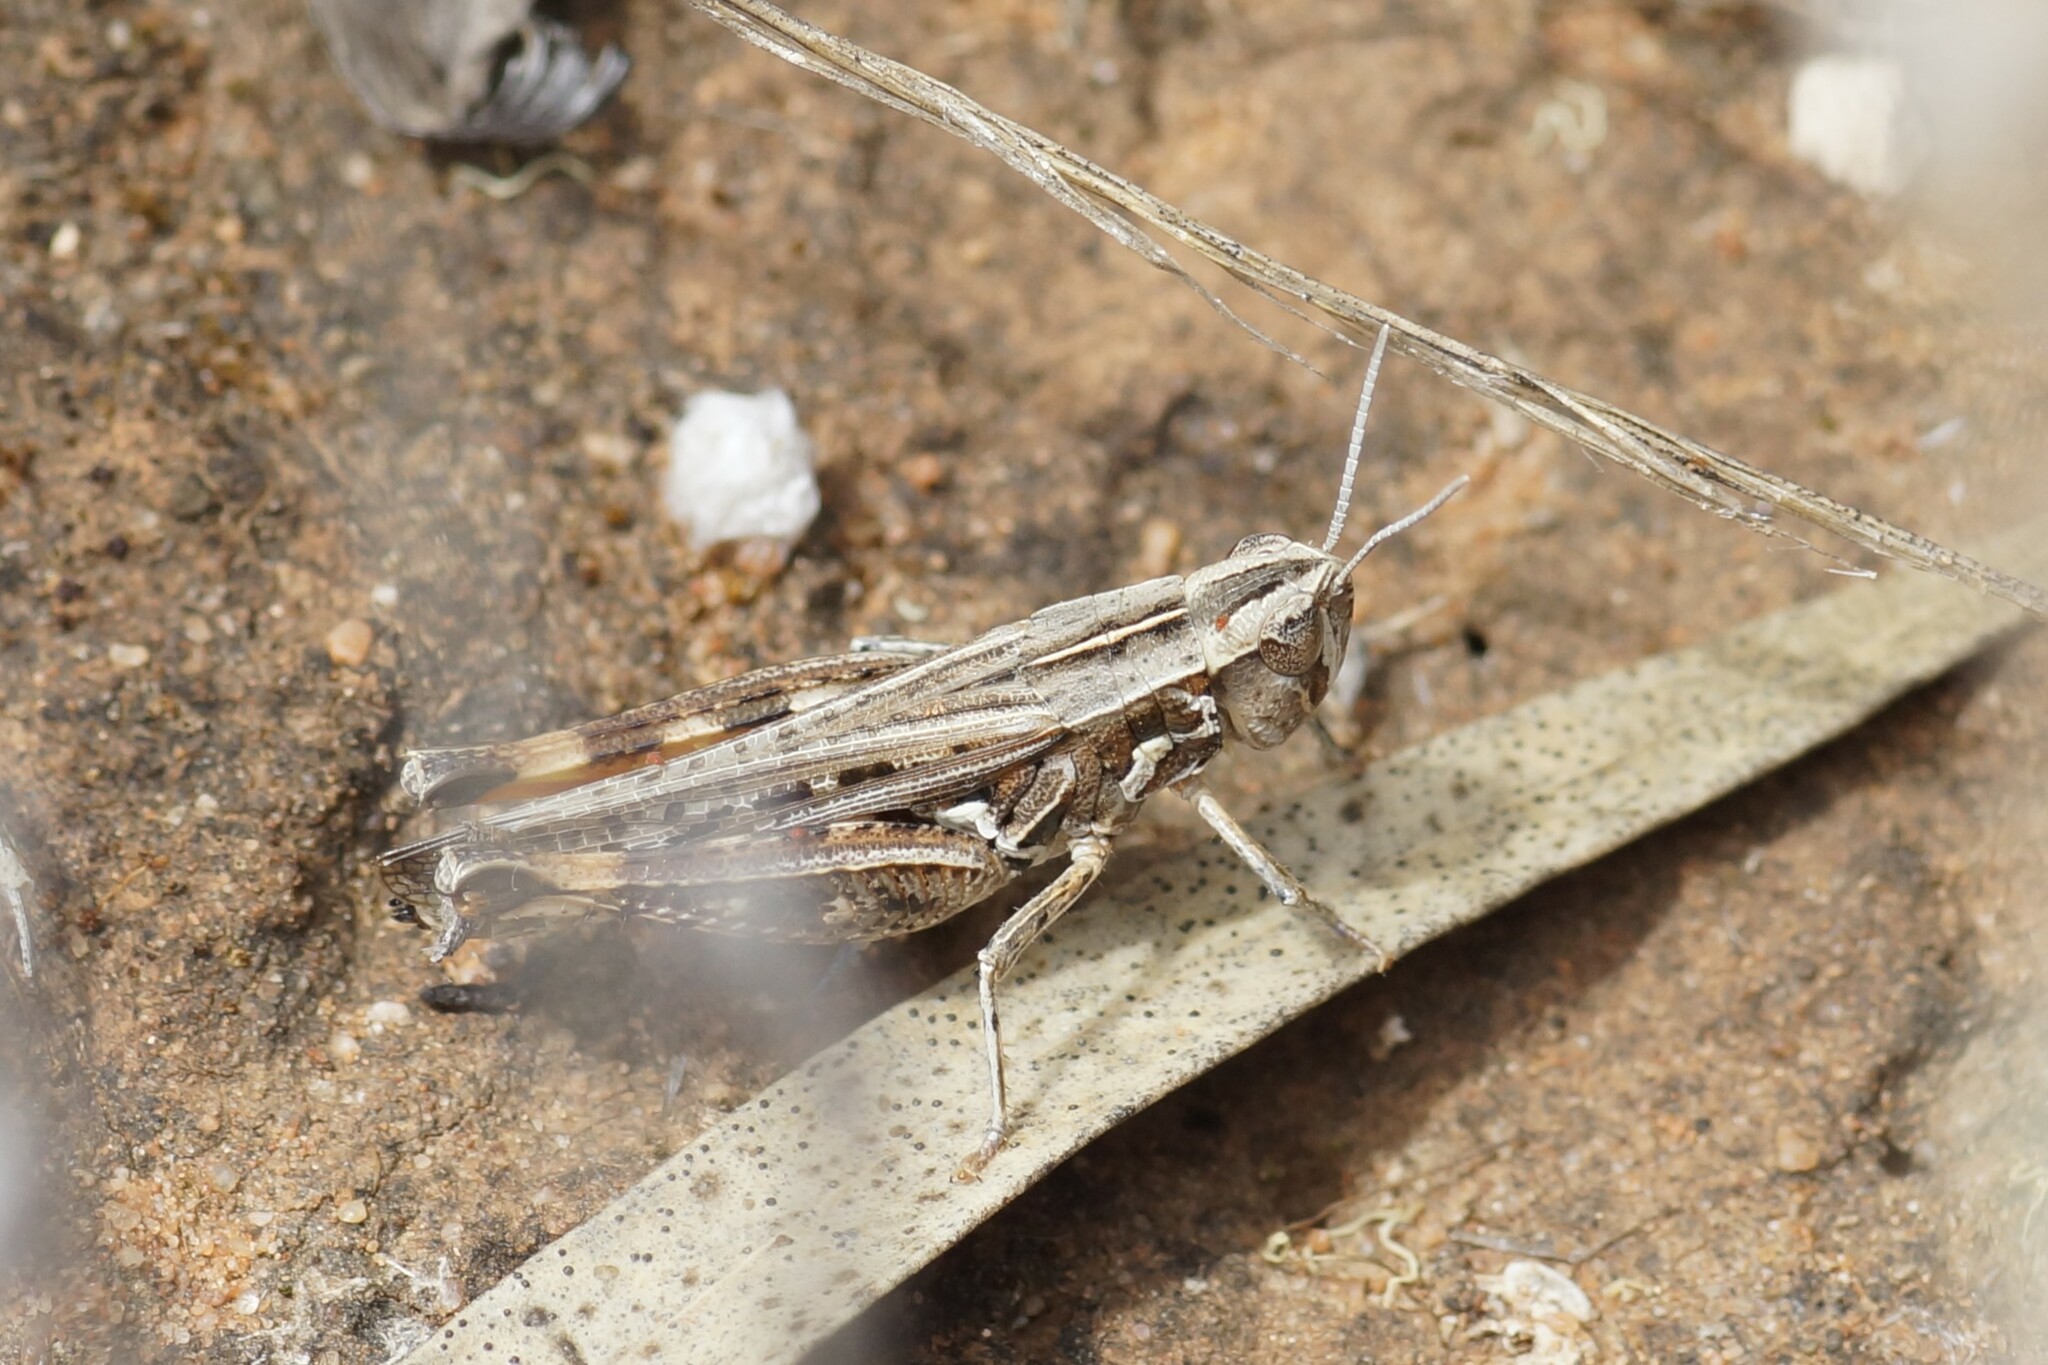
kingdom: Animalia
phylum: Arthropoda
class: Insecta
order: Orthoptera
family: Acrididae
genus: Azelota
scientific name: Azelota
